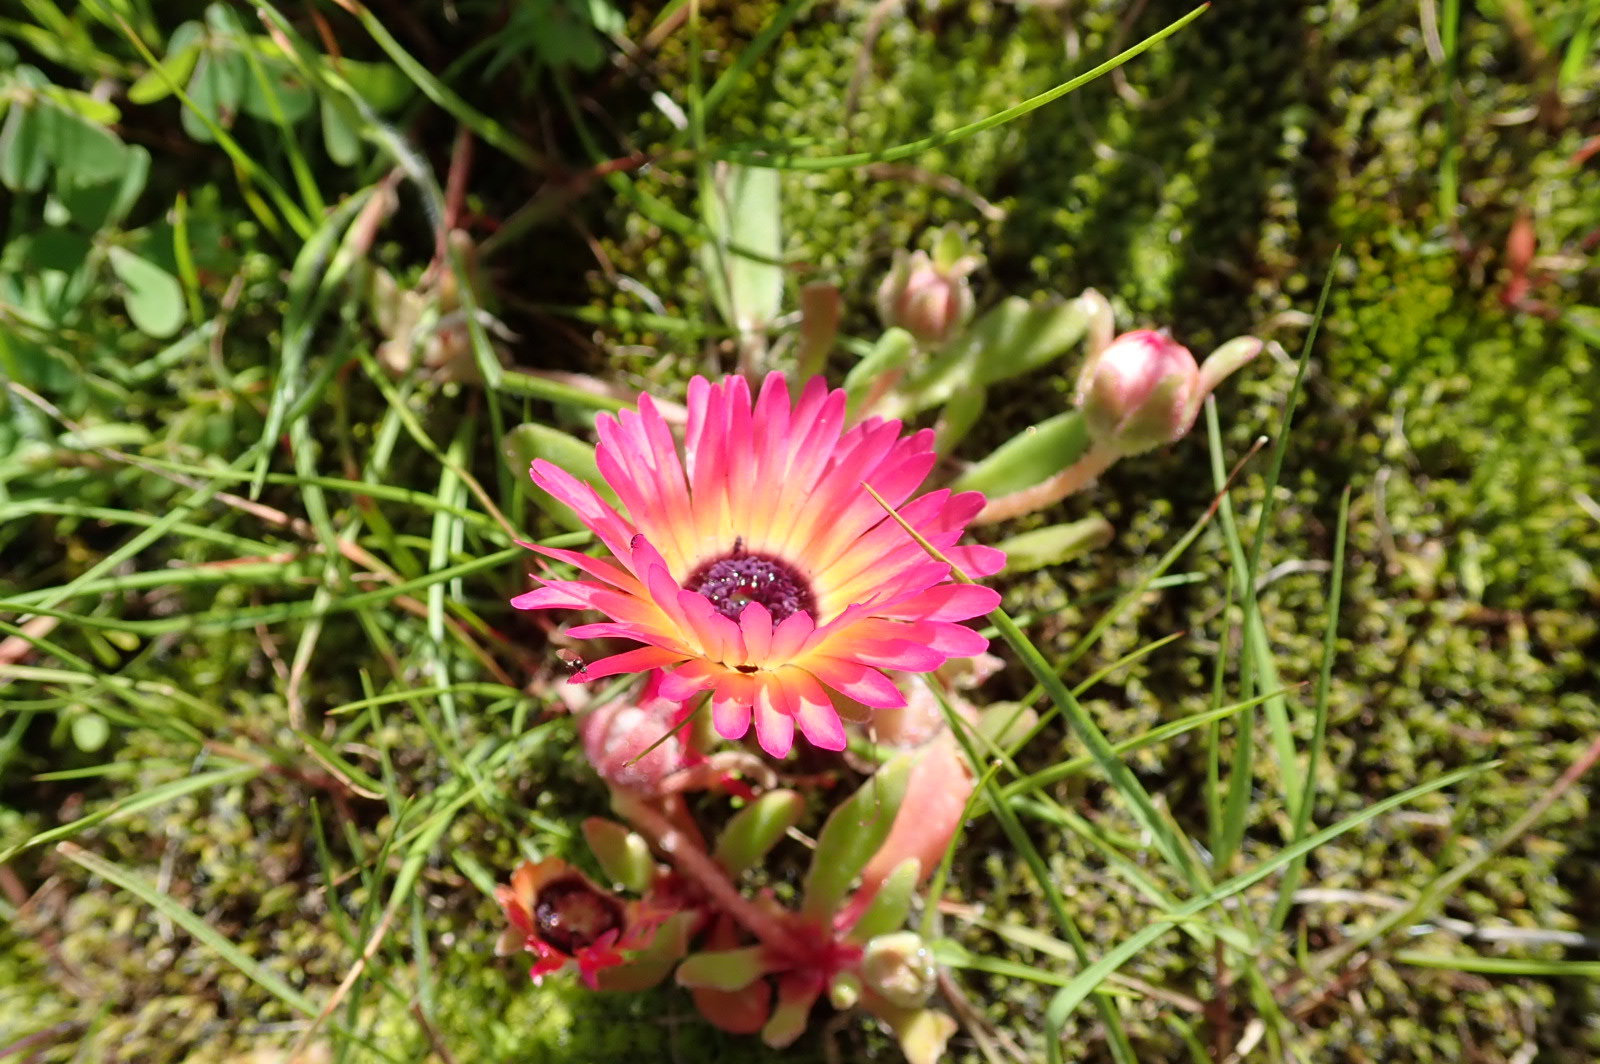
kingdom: Plantae
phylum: Tracheophyta
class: Magnoliopsida
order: Caryophyllales
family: Aizoaceae
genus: Cleretum
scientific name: Cleretum bellidiforme
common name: Livingstone daisy
